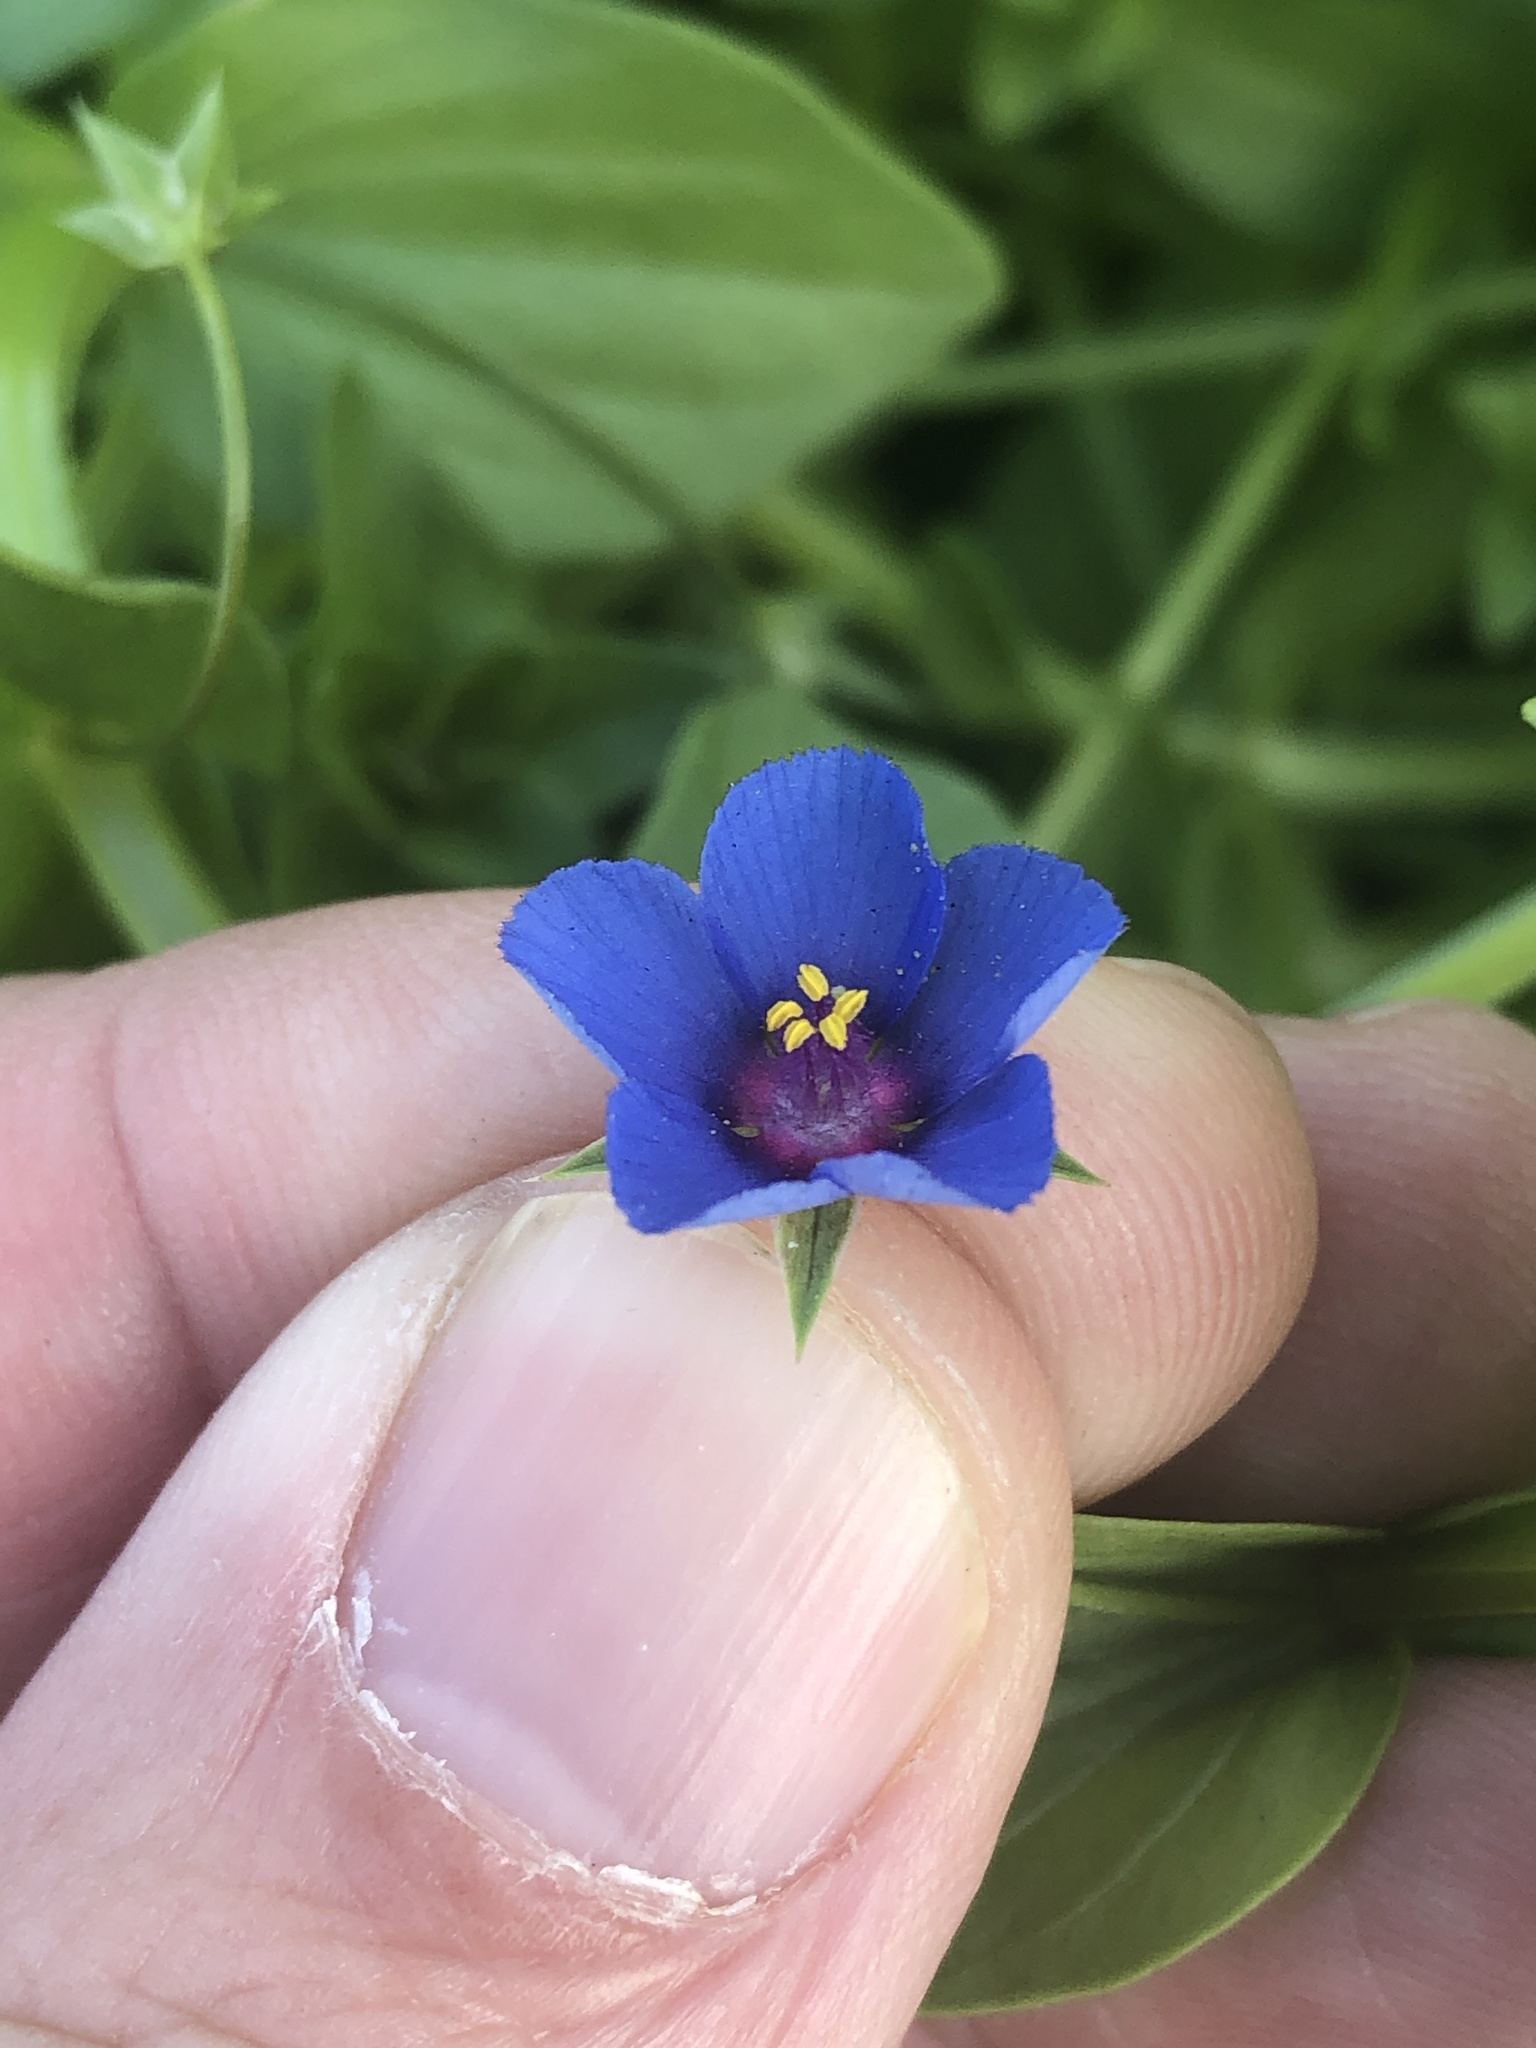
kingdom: Plantae
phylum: Tracheophyta
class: Magnoliopsida
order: Ericales
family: Primulaceae
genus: Lysimachia
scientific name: Lysimachia loeflingii
